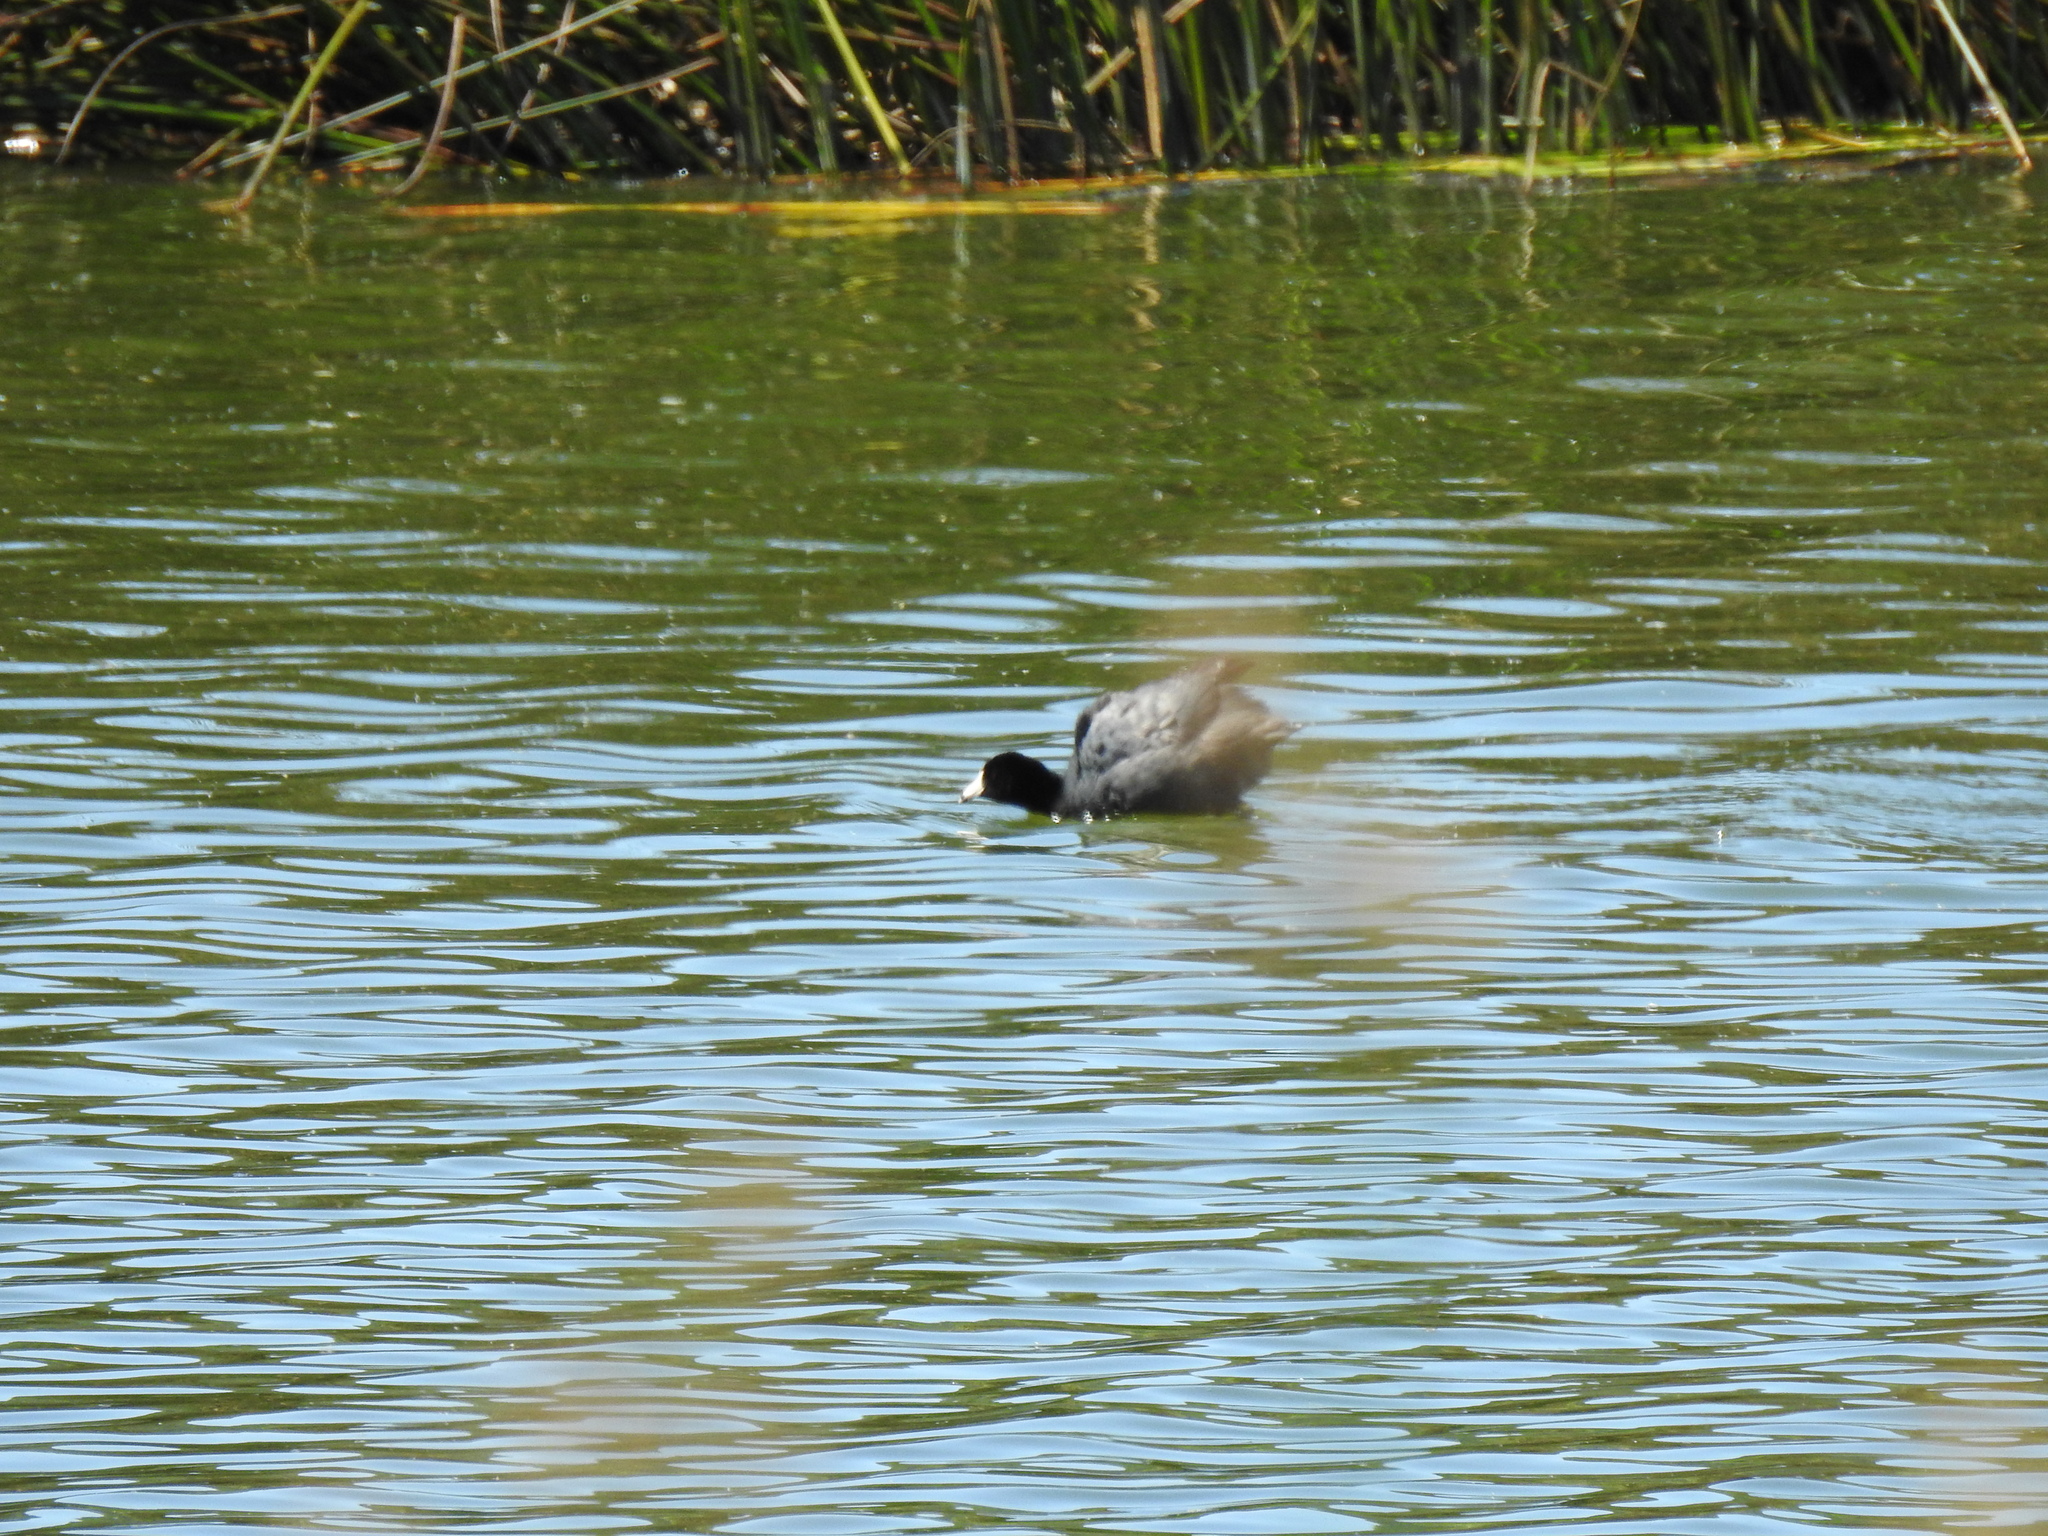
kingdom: Animalia
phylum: Chordata
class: Aves
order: Gruiformes
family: Rallidae
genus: Fulica
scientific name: Fulica americana
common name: American coot
